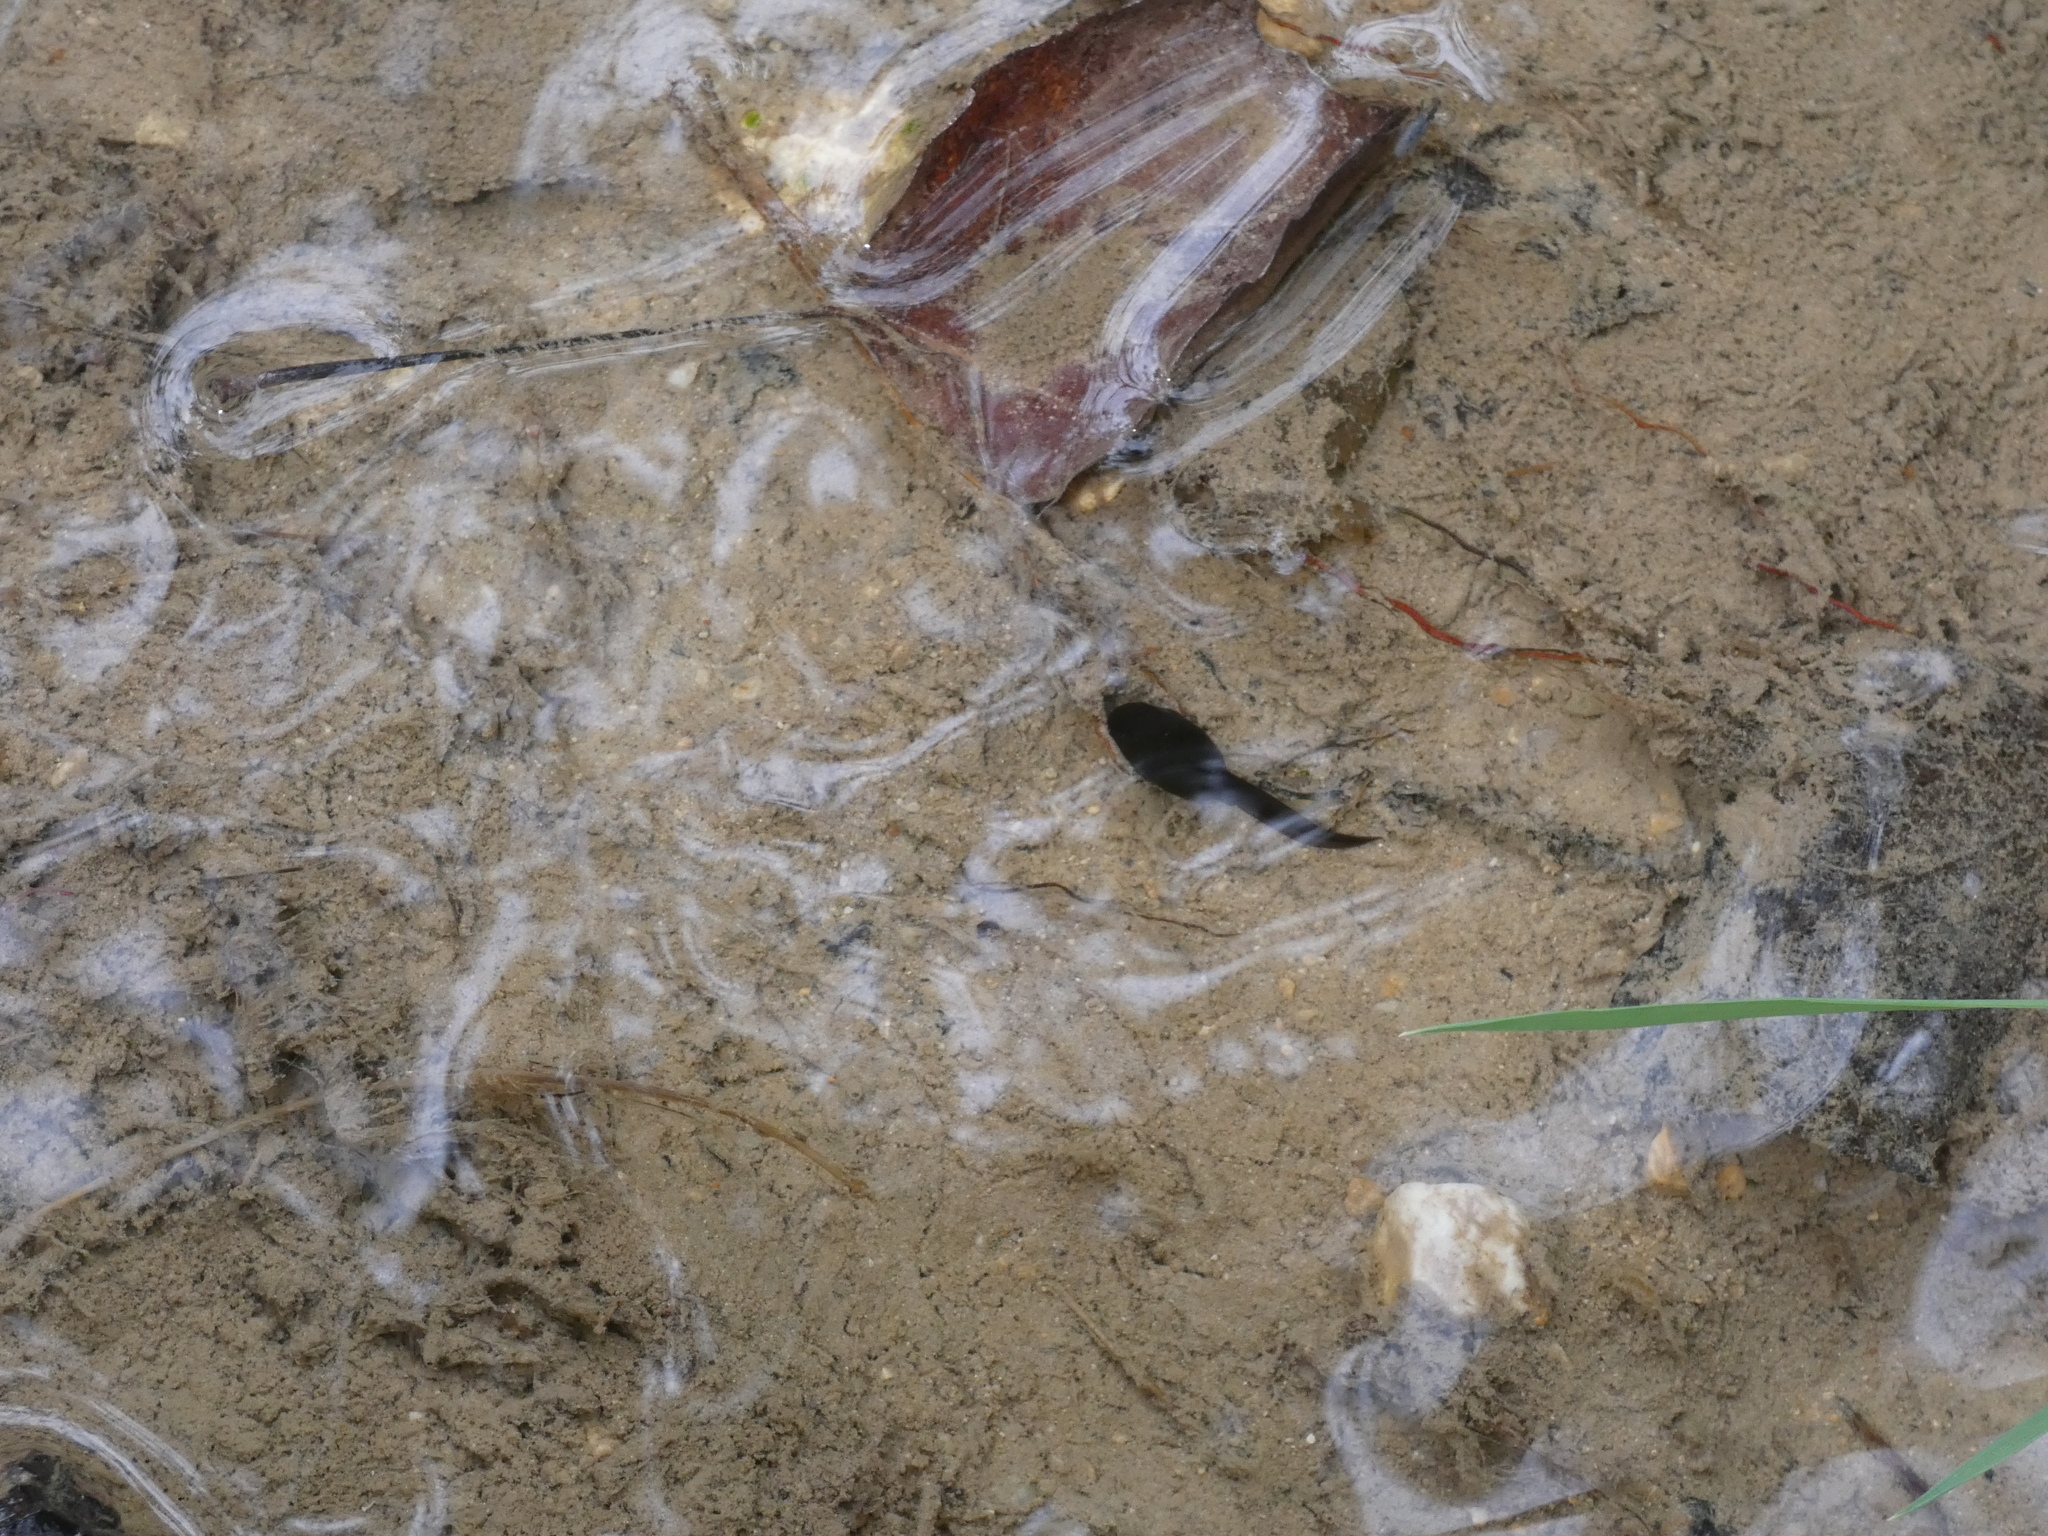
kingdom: Animalia
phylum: Chordata
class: Amphibia
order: Anura
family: Bufonidae
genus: Bufo
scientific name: Bufo spinosus
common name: Western common toad
